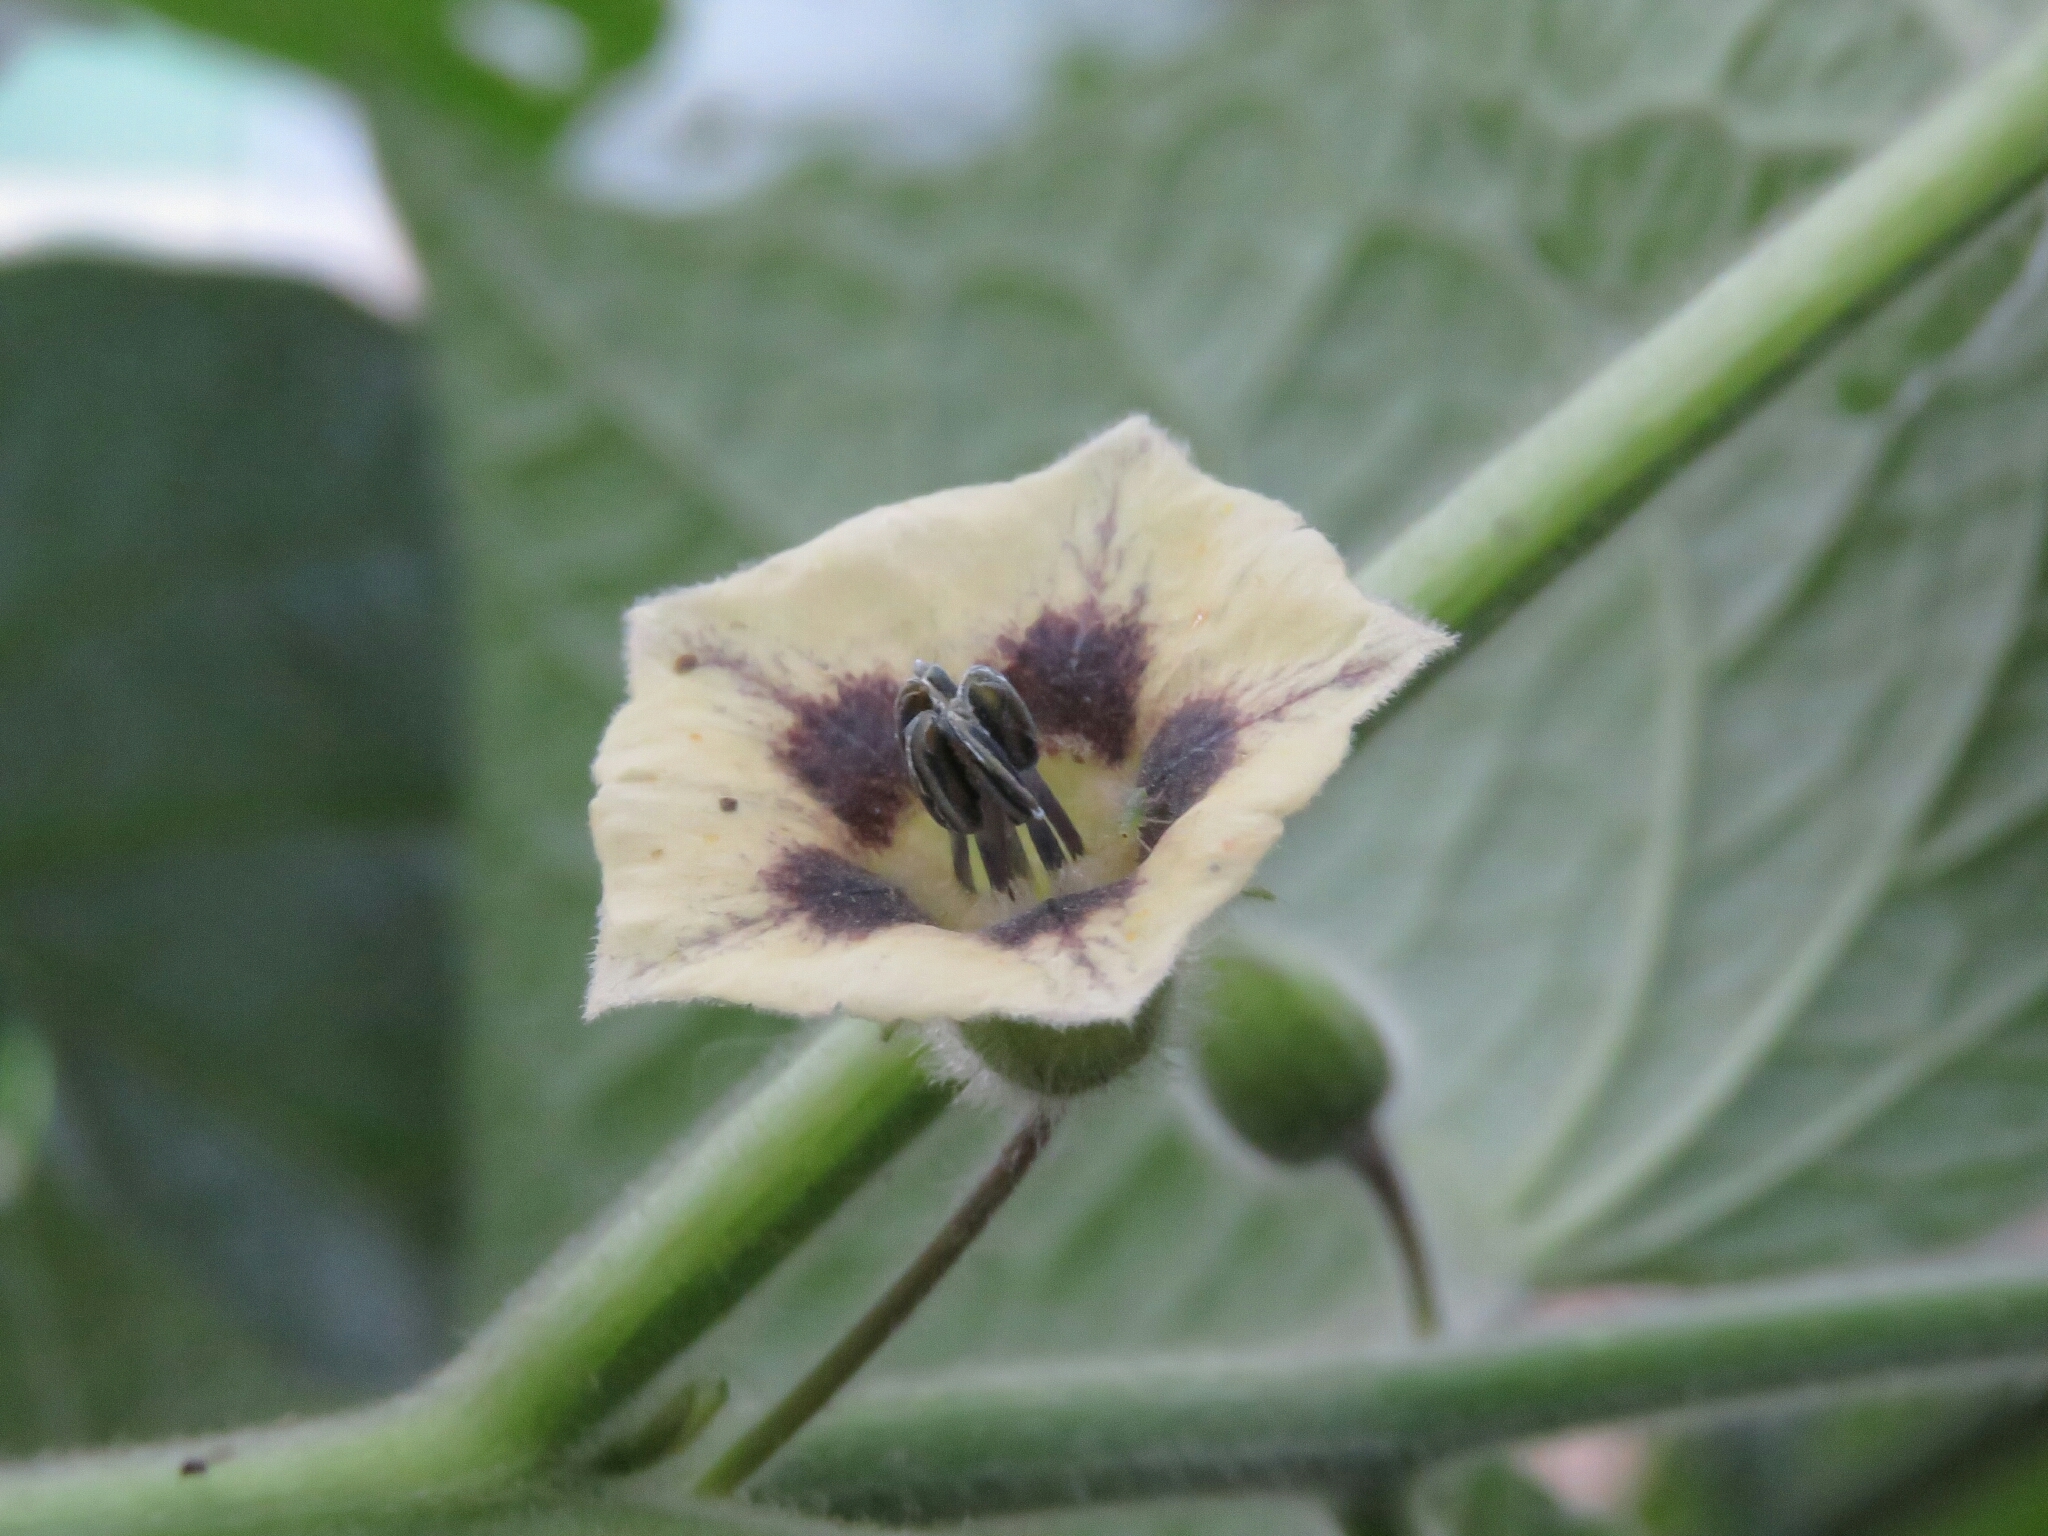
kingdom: Plantae
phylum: Tracheophyta
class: Magnoliopsida
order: Solanales
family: Solanaceae
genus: Physalis
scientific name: Physalis peruviana
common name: Cape-gooseberry
